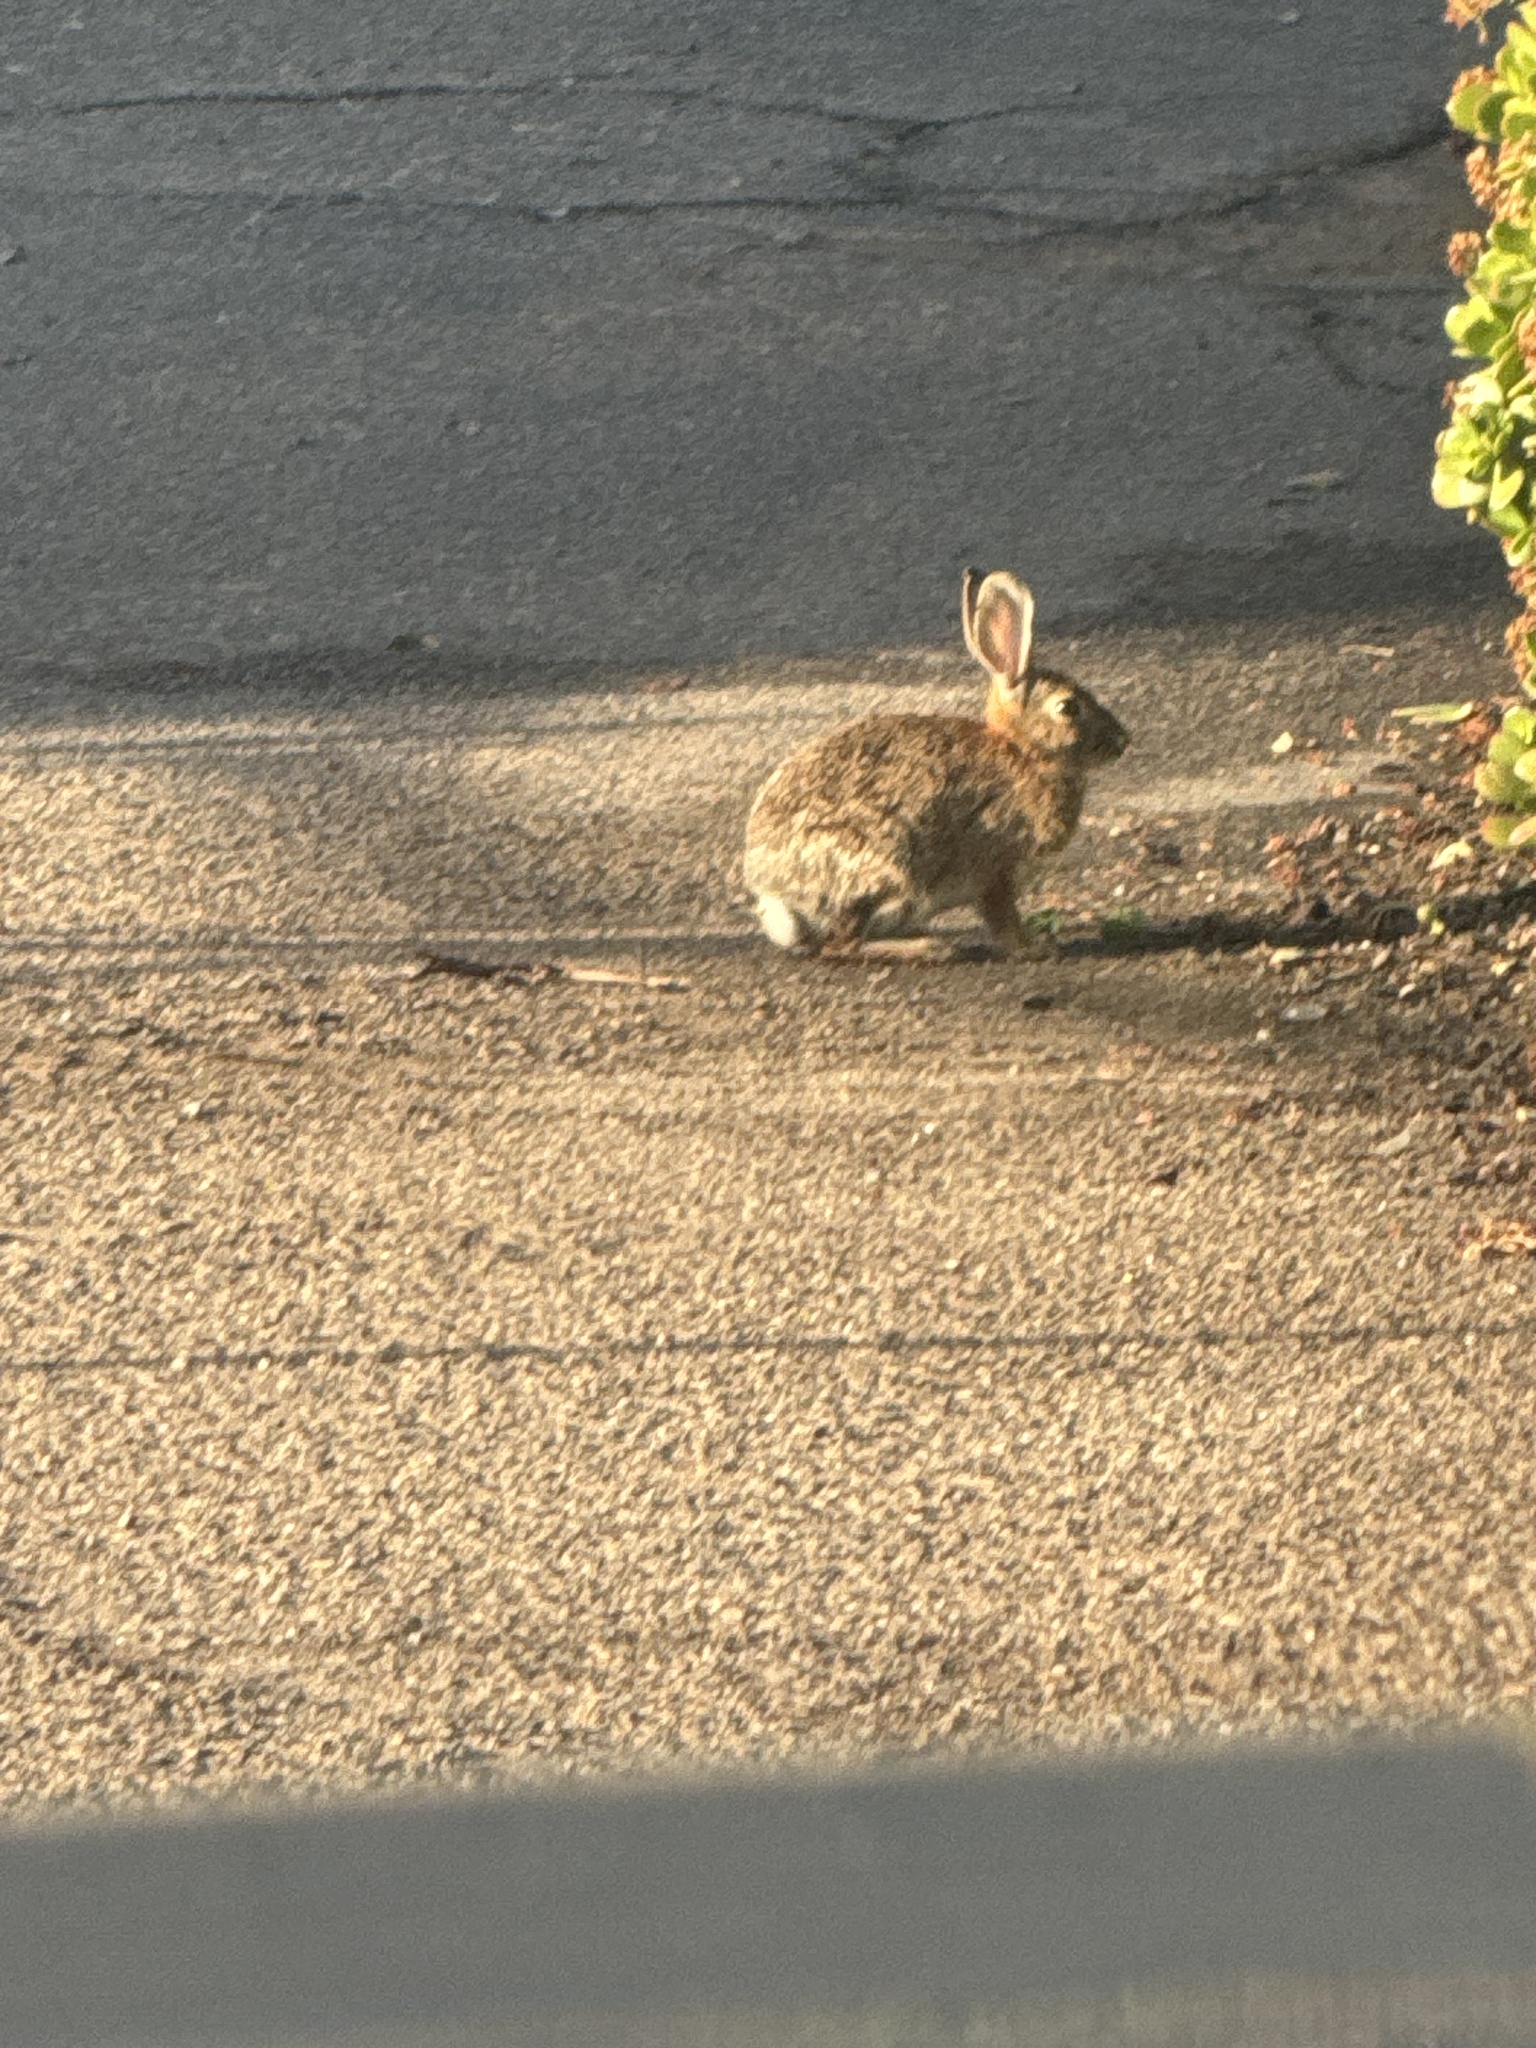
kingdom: Animalia
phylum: Chordata
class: Mammalia
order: Lagomorpha
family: Leporidae
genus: Sylvilagus
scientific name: Sylvilagus audubonii
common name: Desert cottontail
